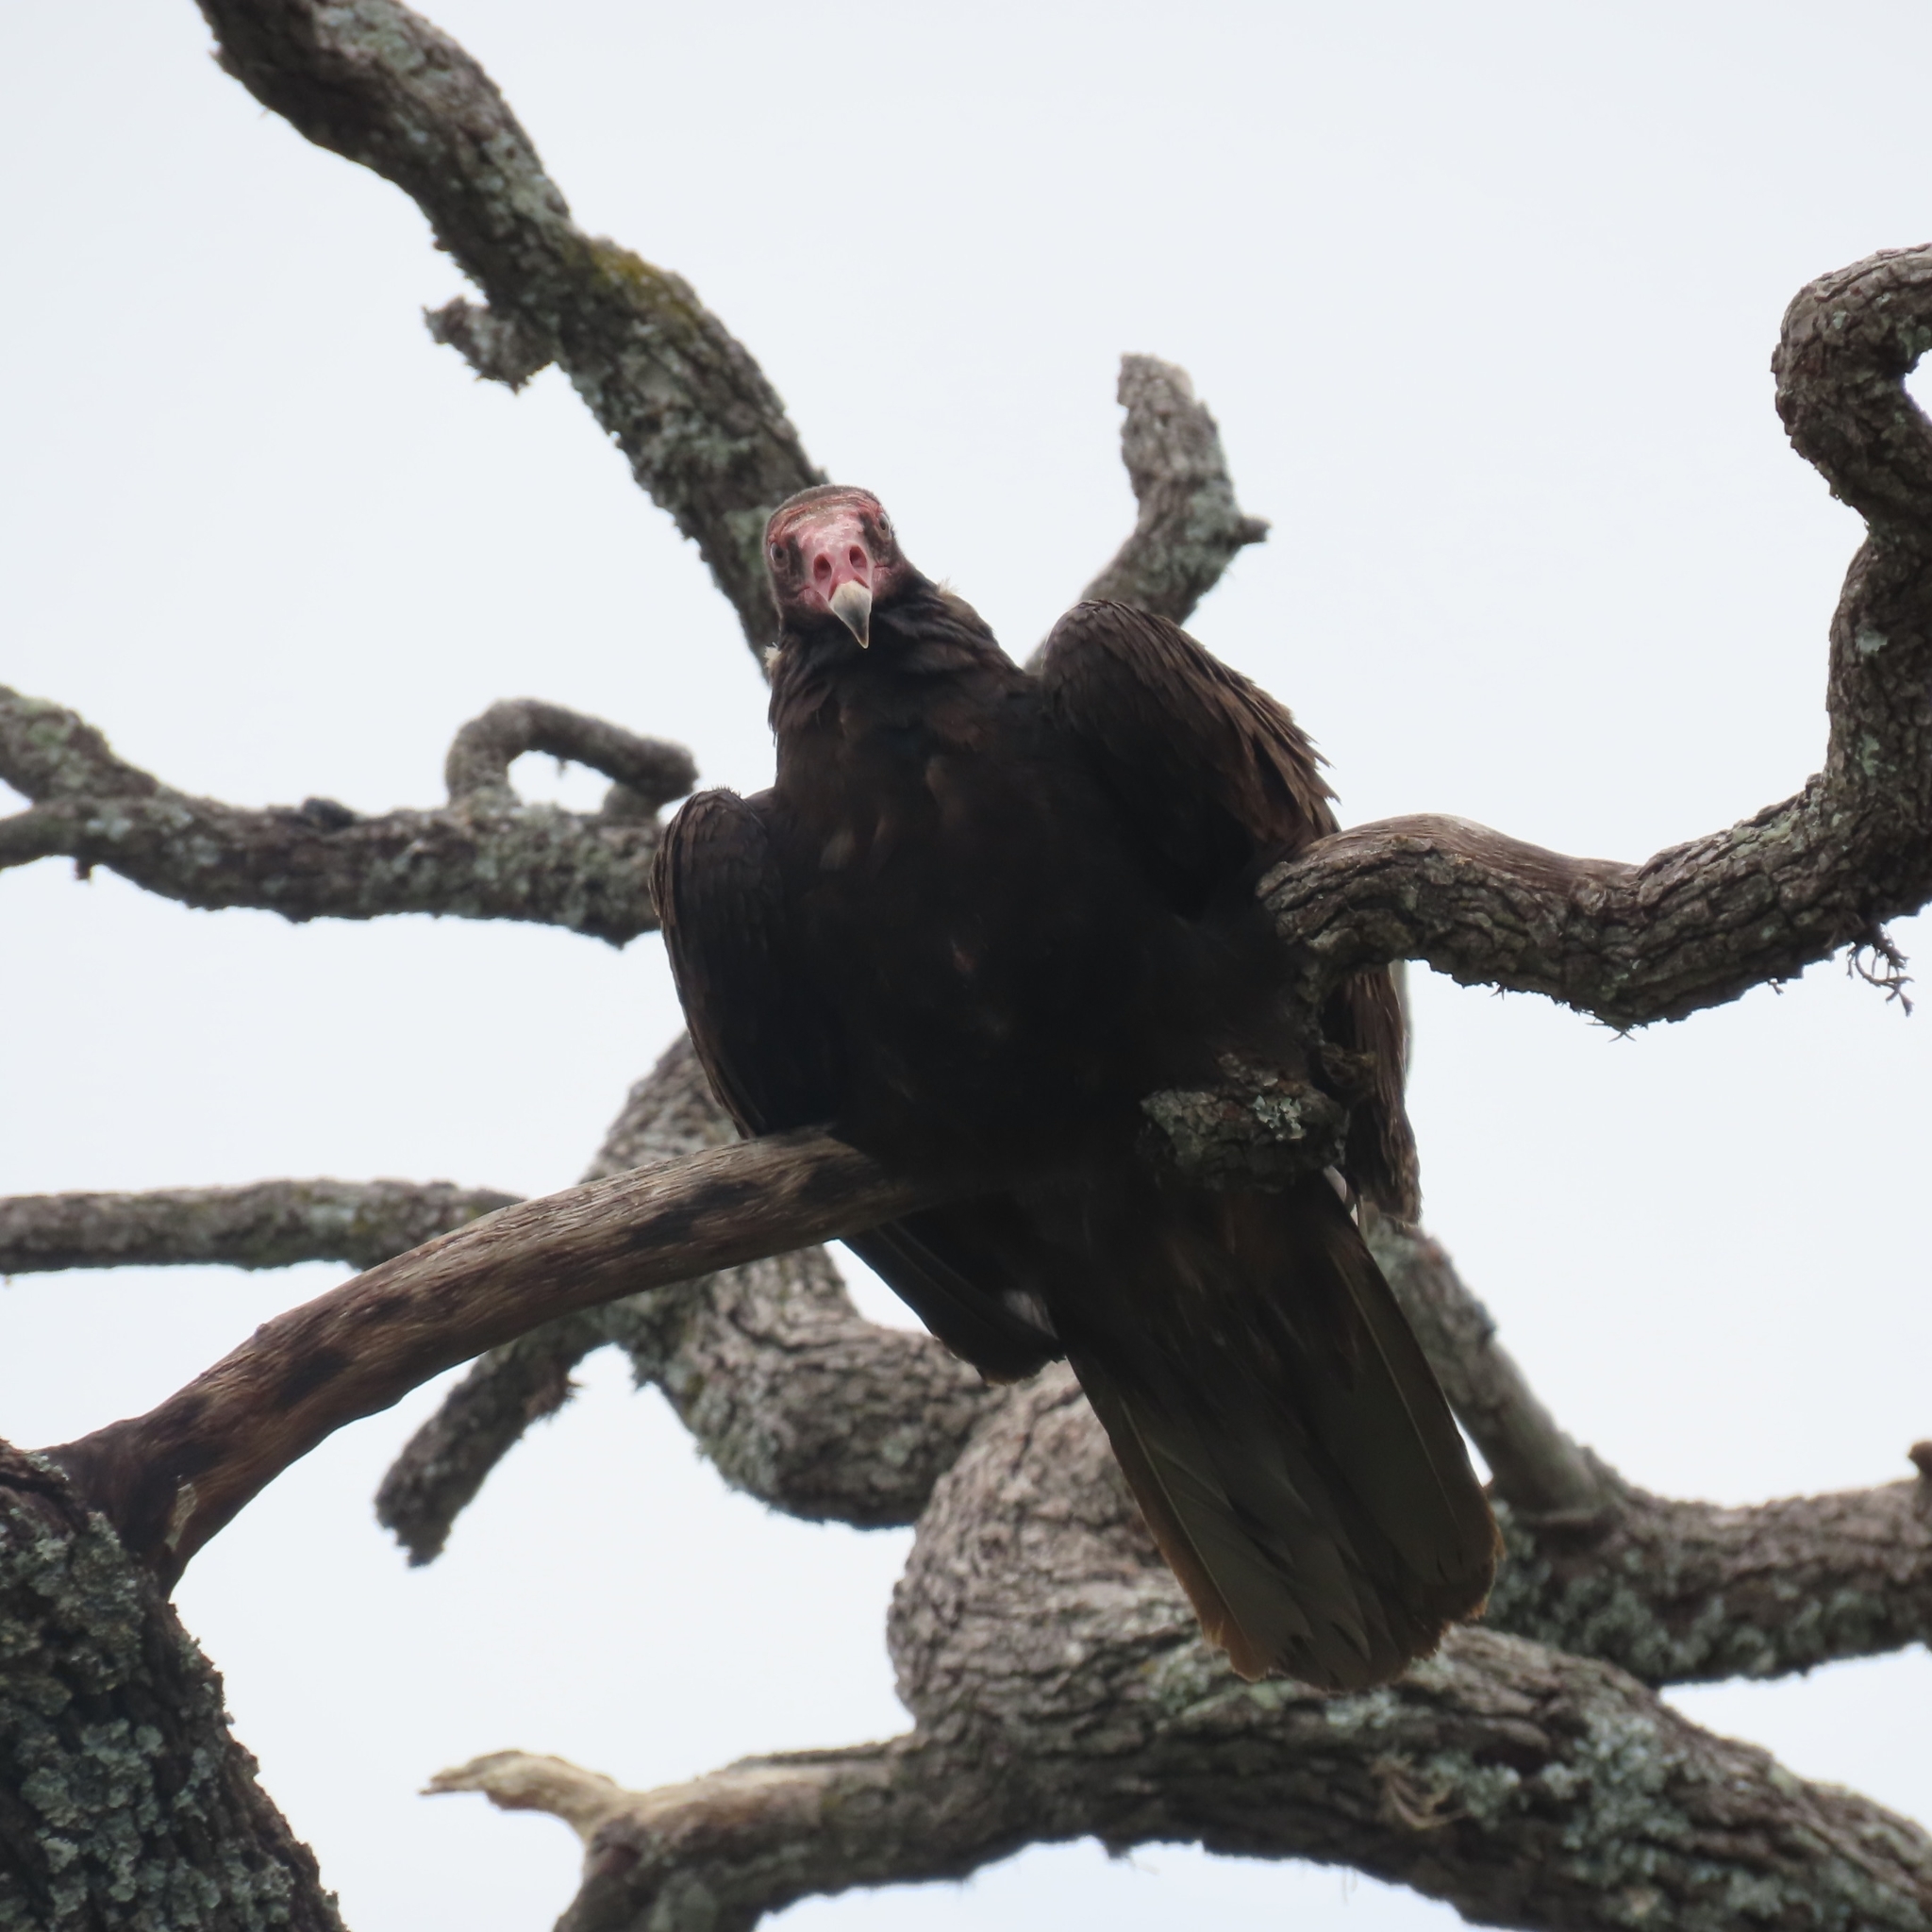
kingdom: Animalia
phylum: Chordata
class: Aves
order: Accipitriformes
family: Cathartidae
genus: Cathartes
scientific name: Cathartes aura
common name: Turkey vulture
